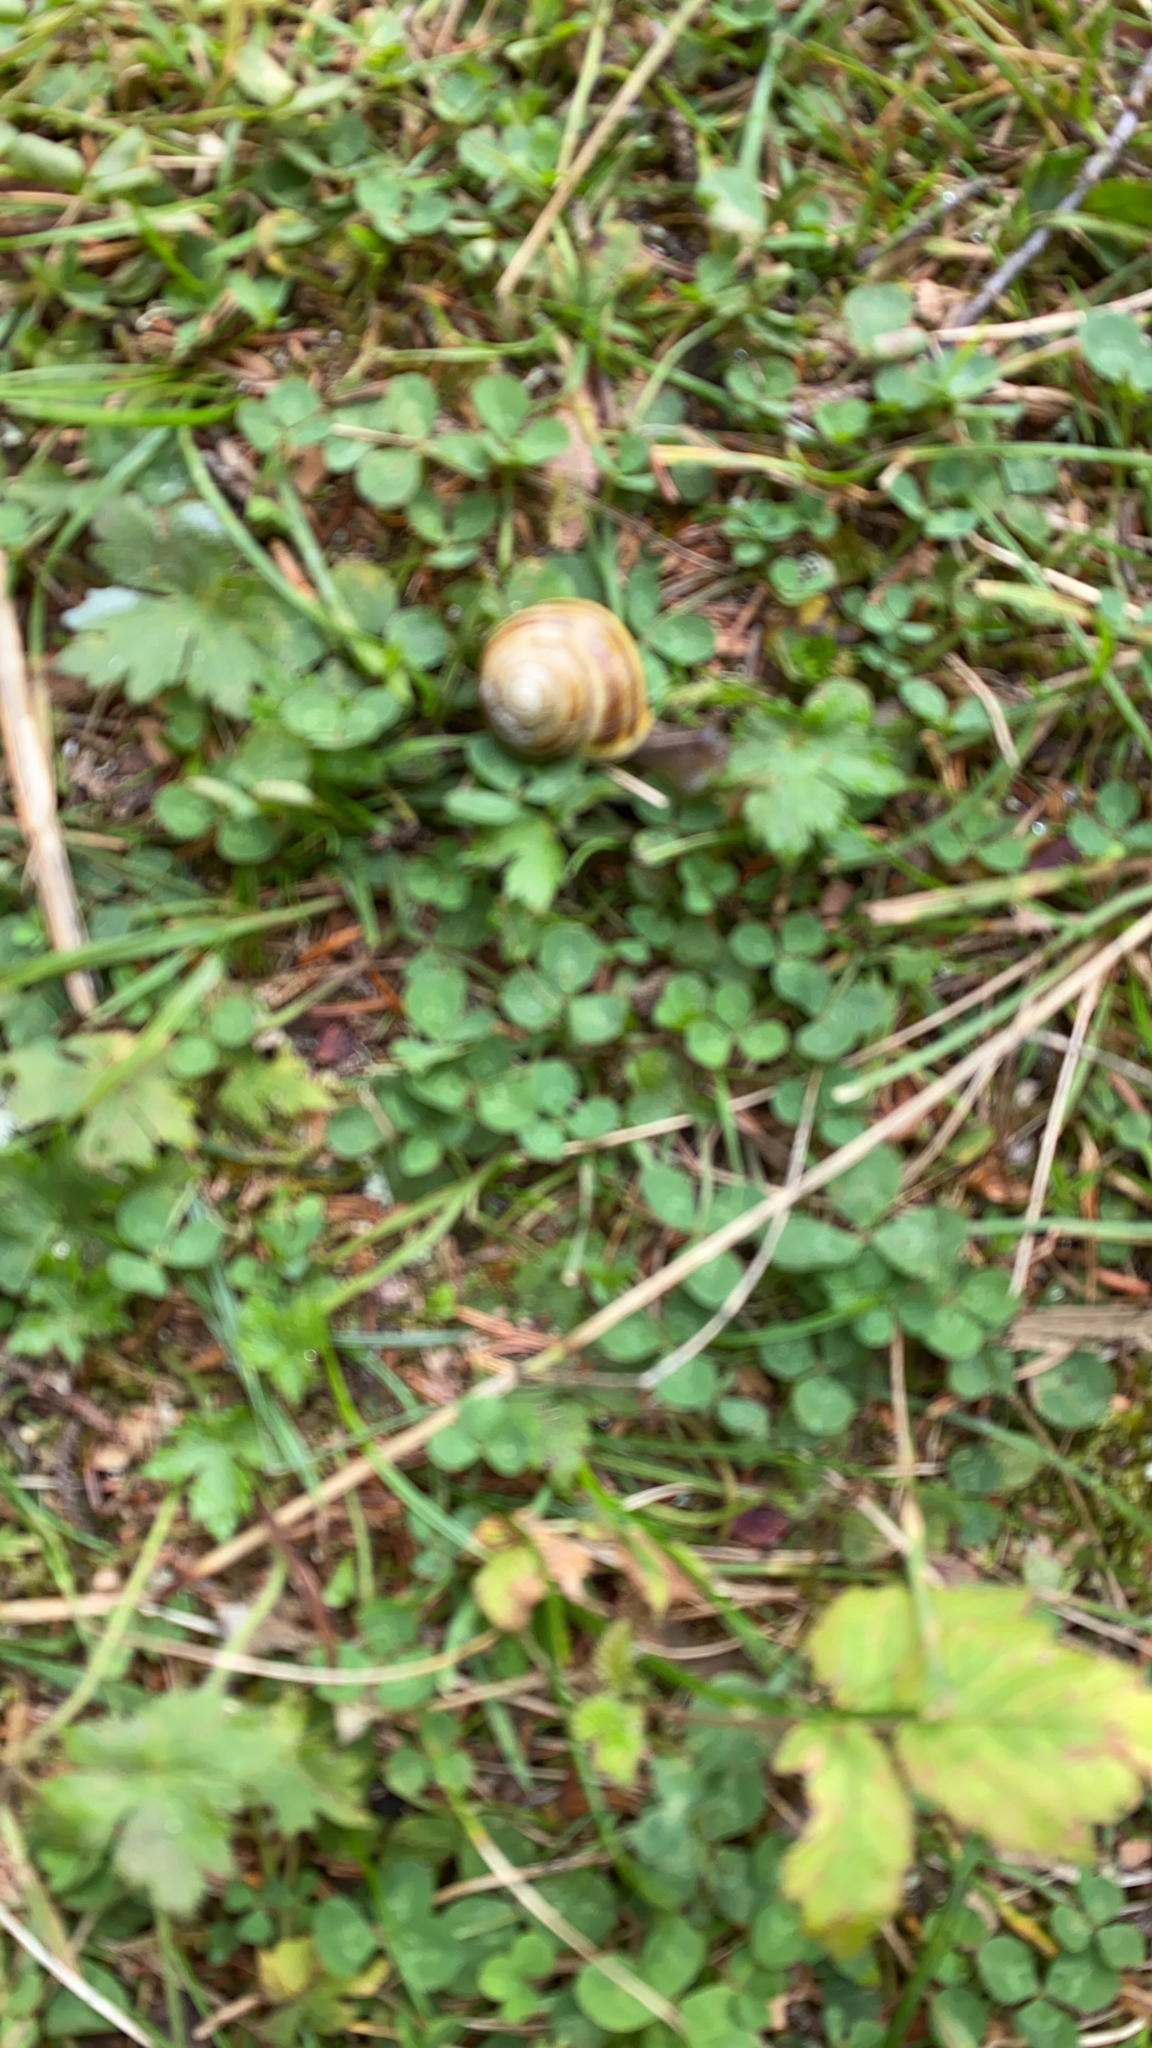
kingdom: Animalia
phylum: Mollusca
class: Gastropoda
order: Stylommatophora
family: Helicidae
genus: Cepaea
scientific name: Cepaea hortensis
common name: White-lip gardensnail
